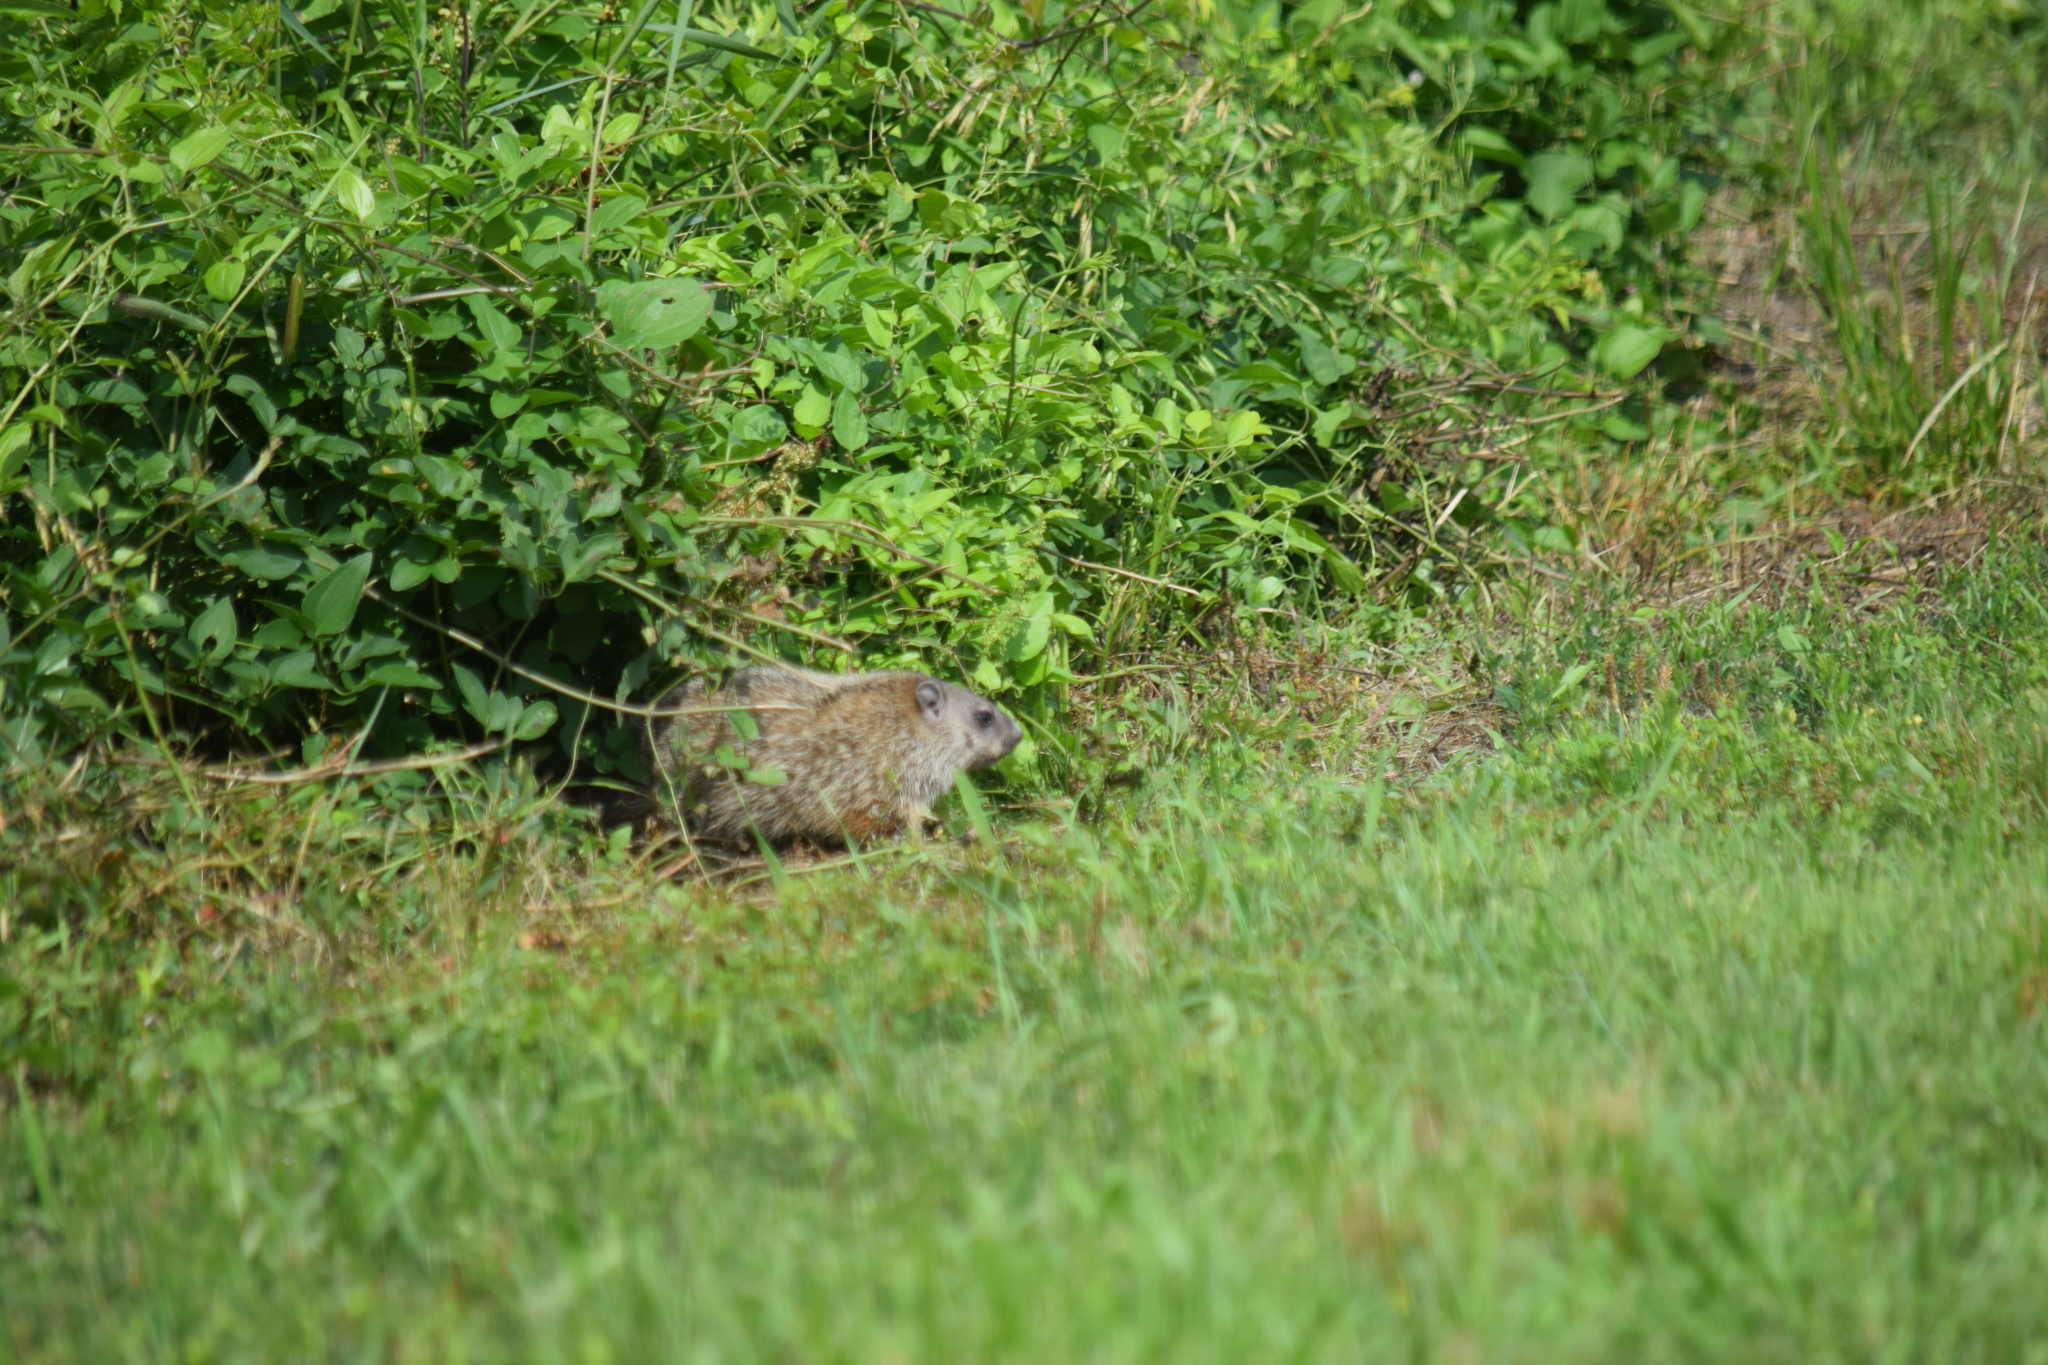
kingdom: Animalia
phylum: Chordata
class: Mammalia
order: Rodentia
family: Sciuridae
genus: Marmota
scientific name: Marmota monax
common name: Groundhog
